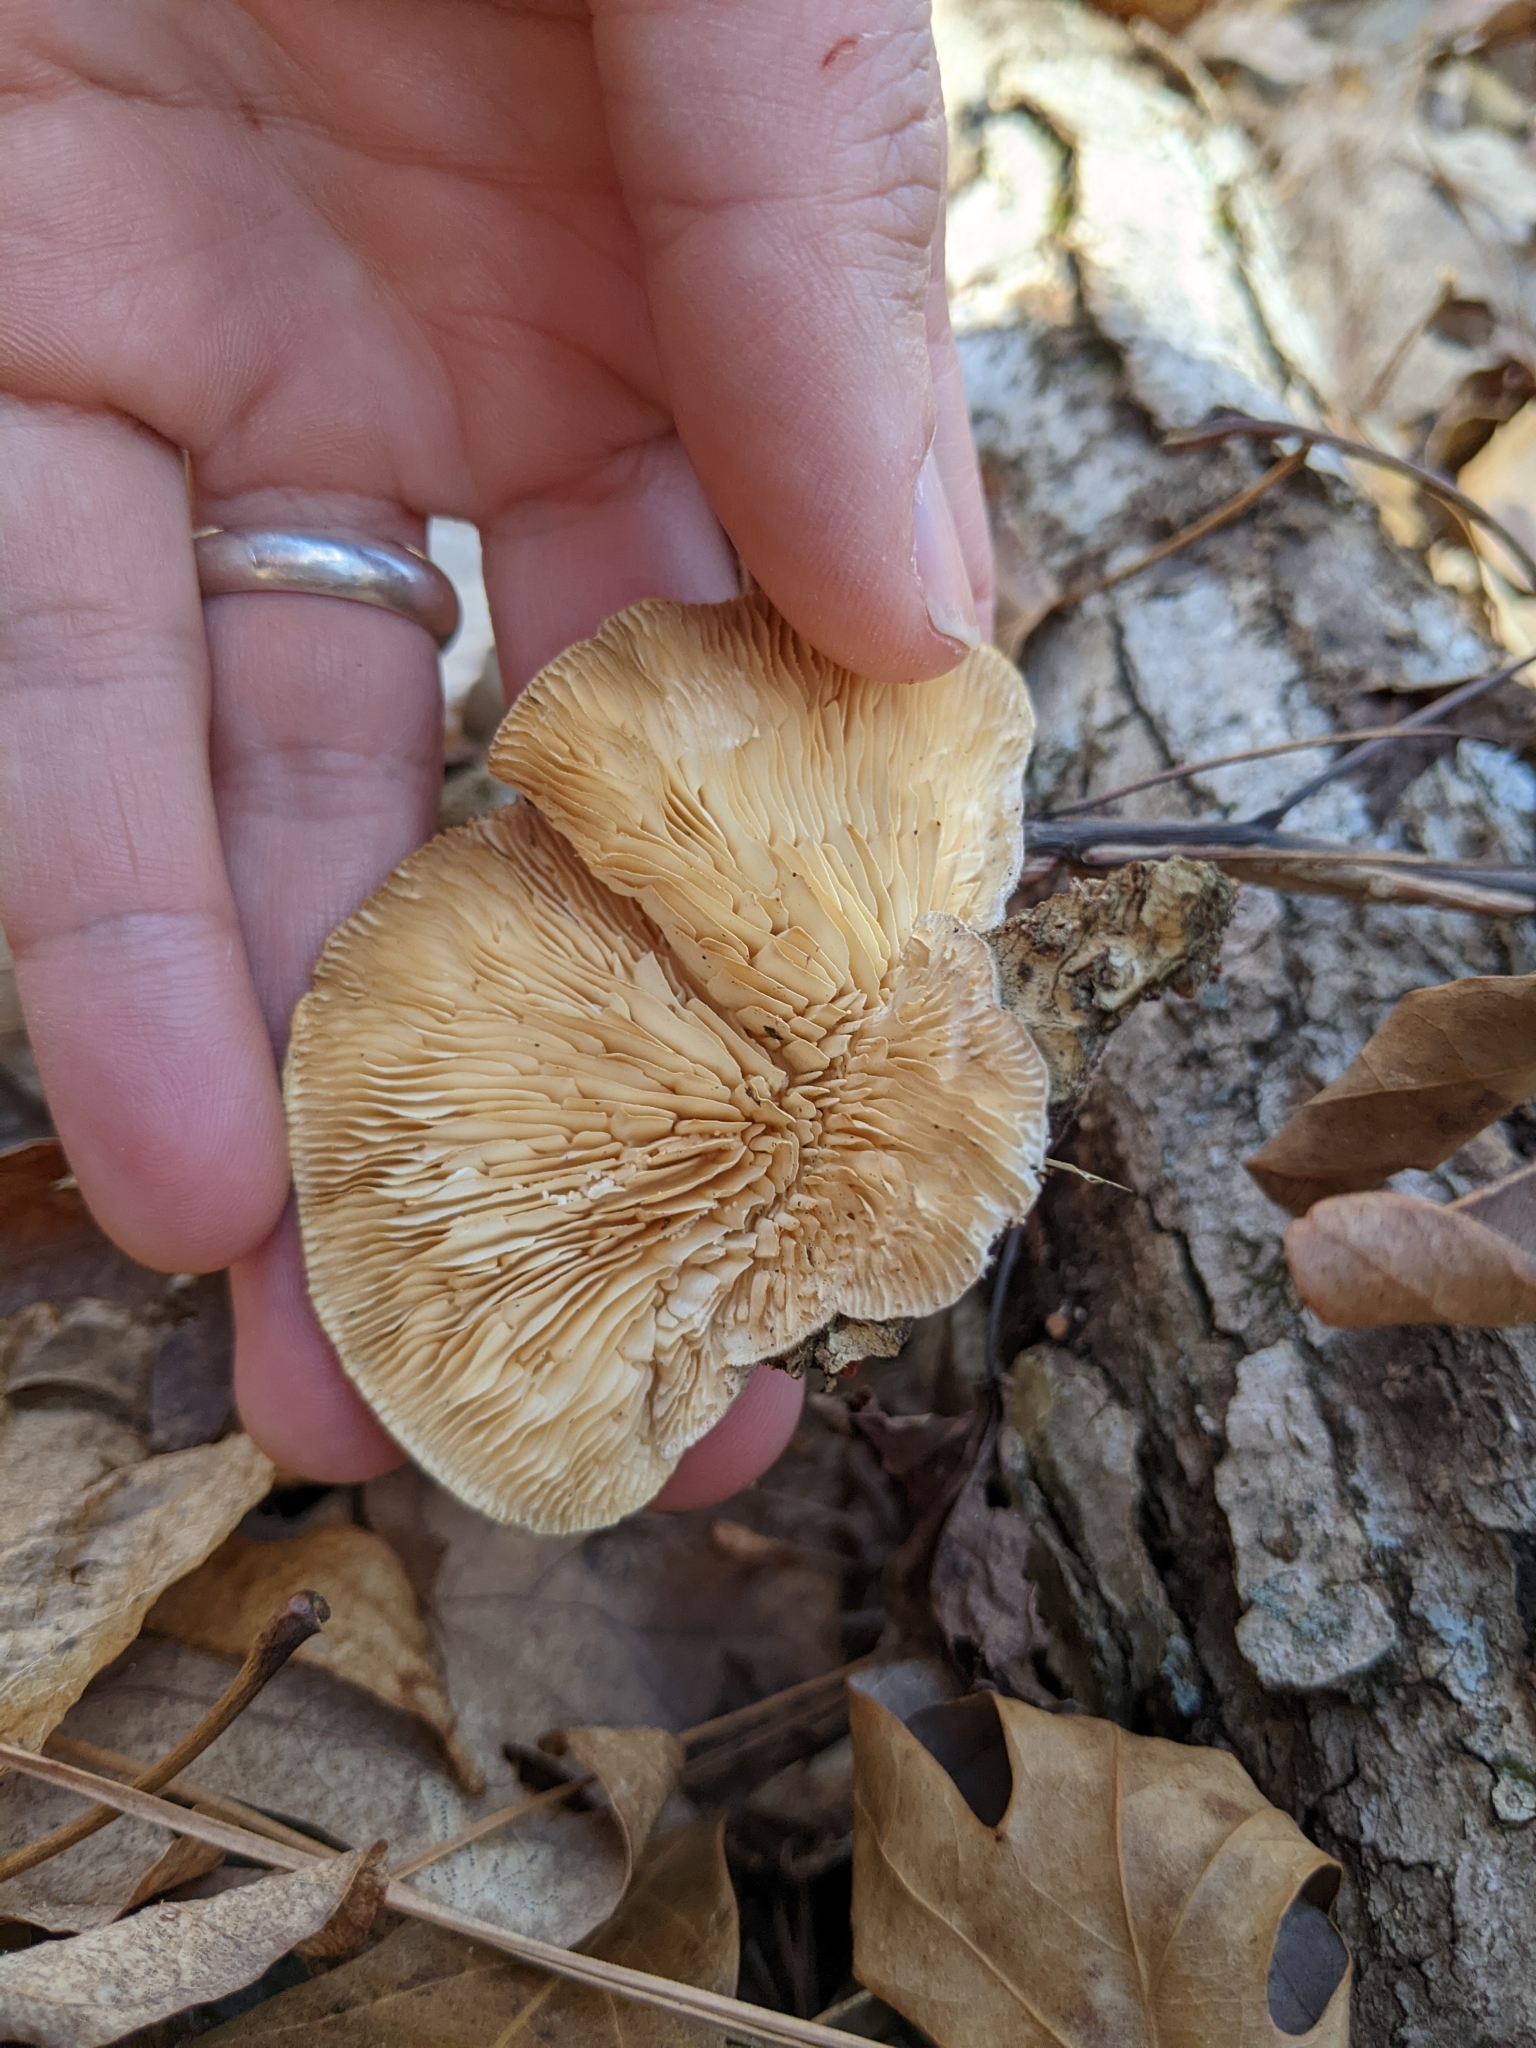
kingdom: Fungi
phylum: Basidiomycota
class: Agaricomycetes
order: Polyporales
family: Polyporaceae
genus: Lenzites
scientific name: Lenzites betulinus
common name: Birch mazegill
